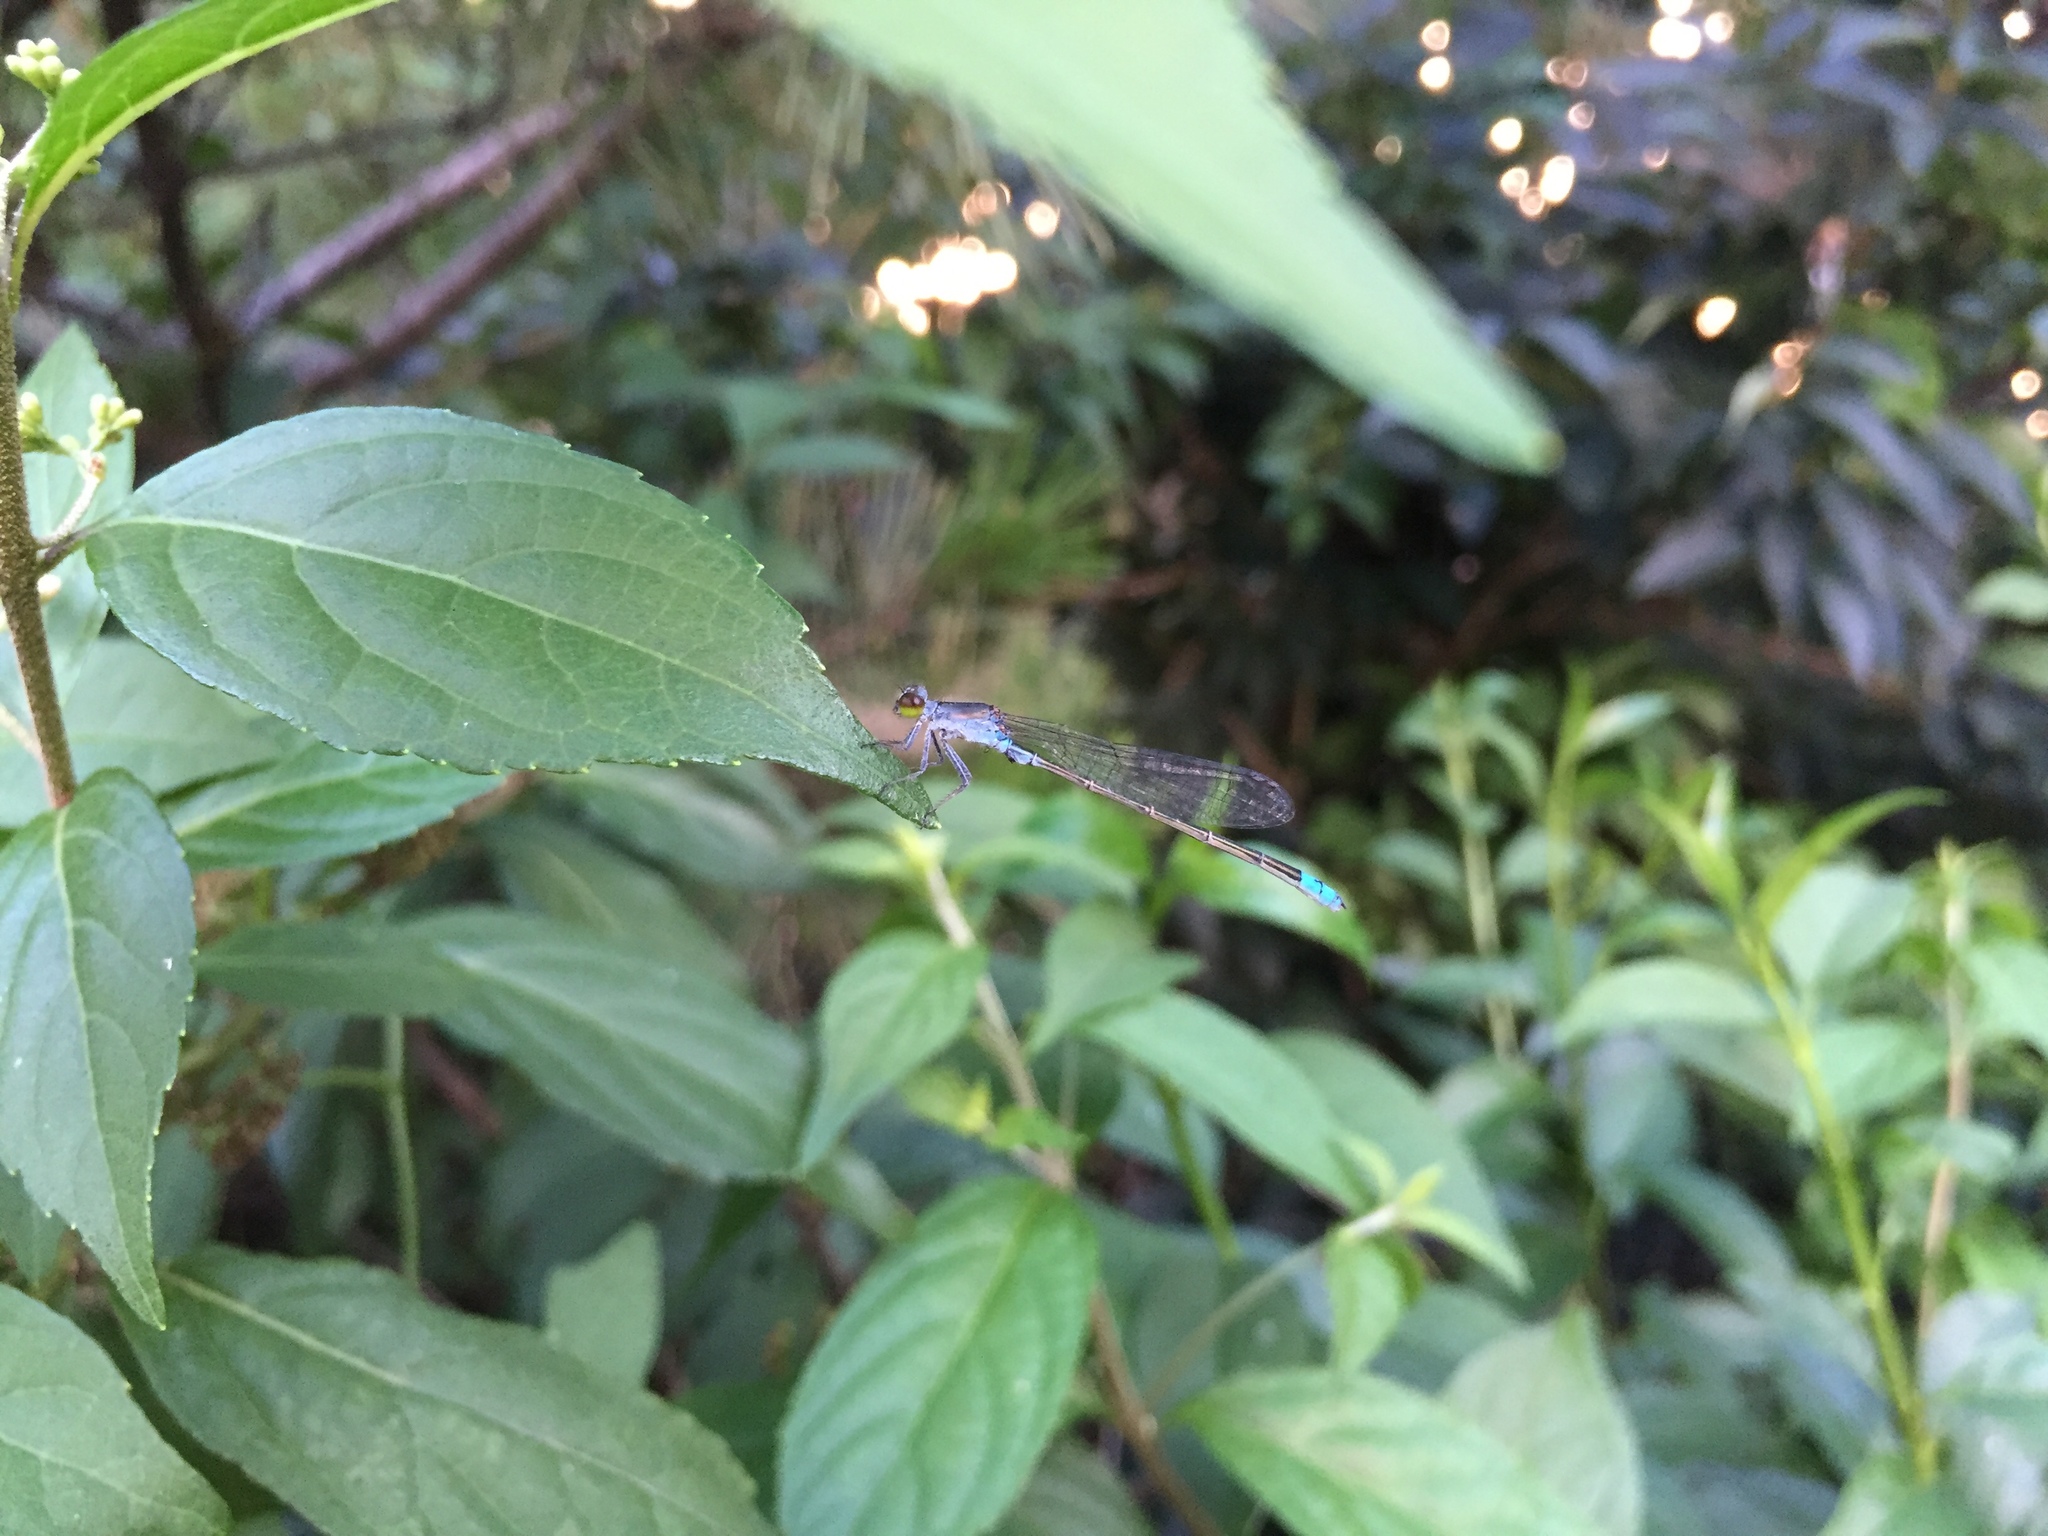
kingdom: Animalia
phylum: Arthropoda
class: Insecta
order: Odonata
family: Coenagrionidae
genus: Paracercion
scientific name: Paracercion calamorum
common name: Dusky lilysquatter
